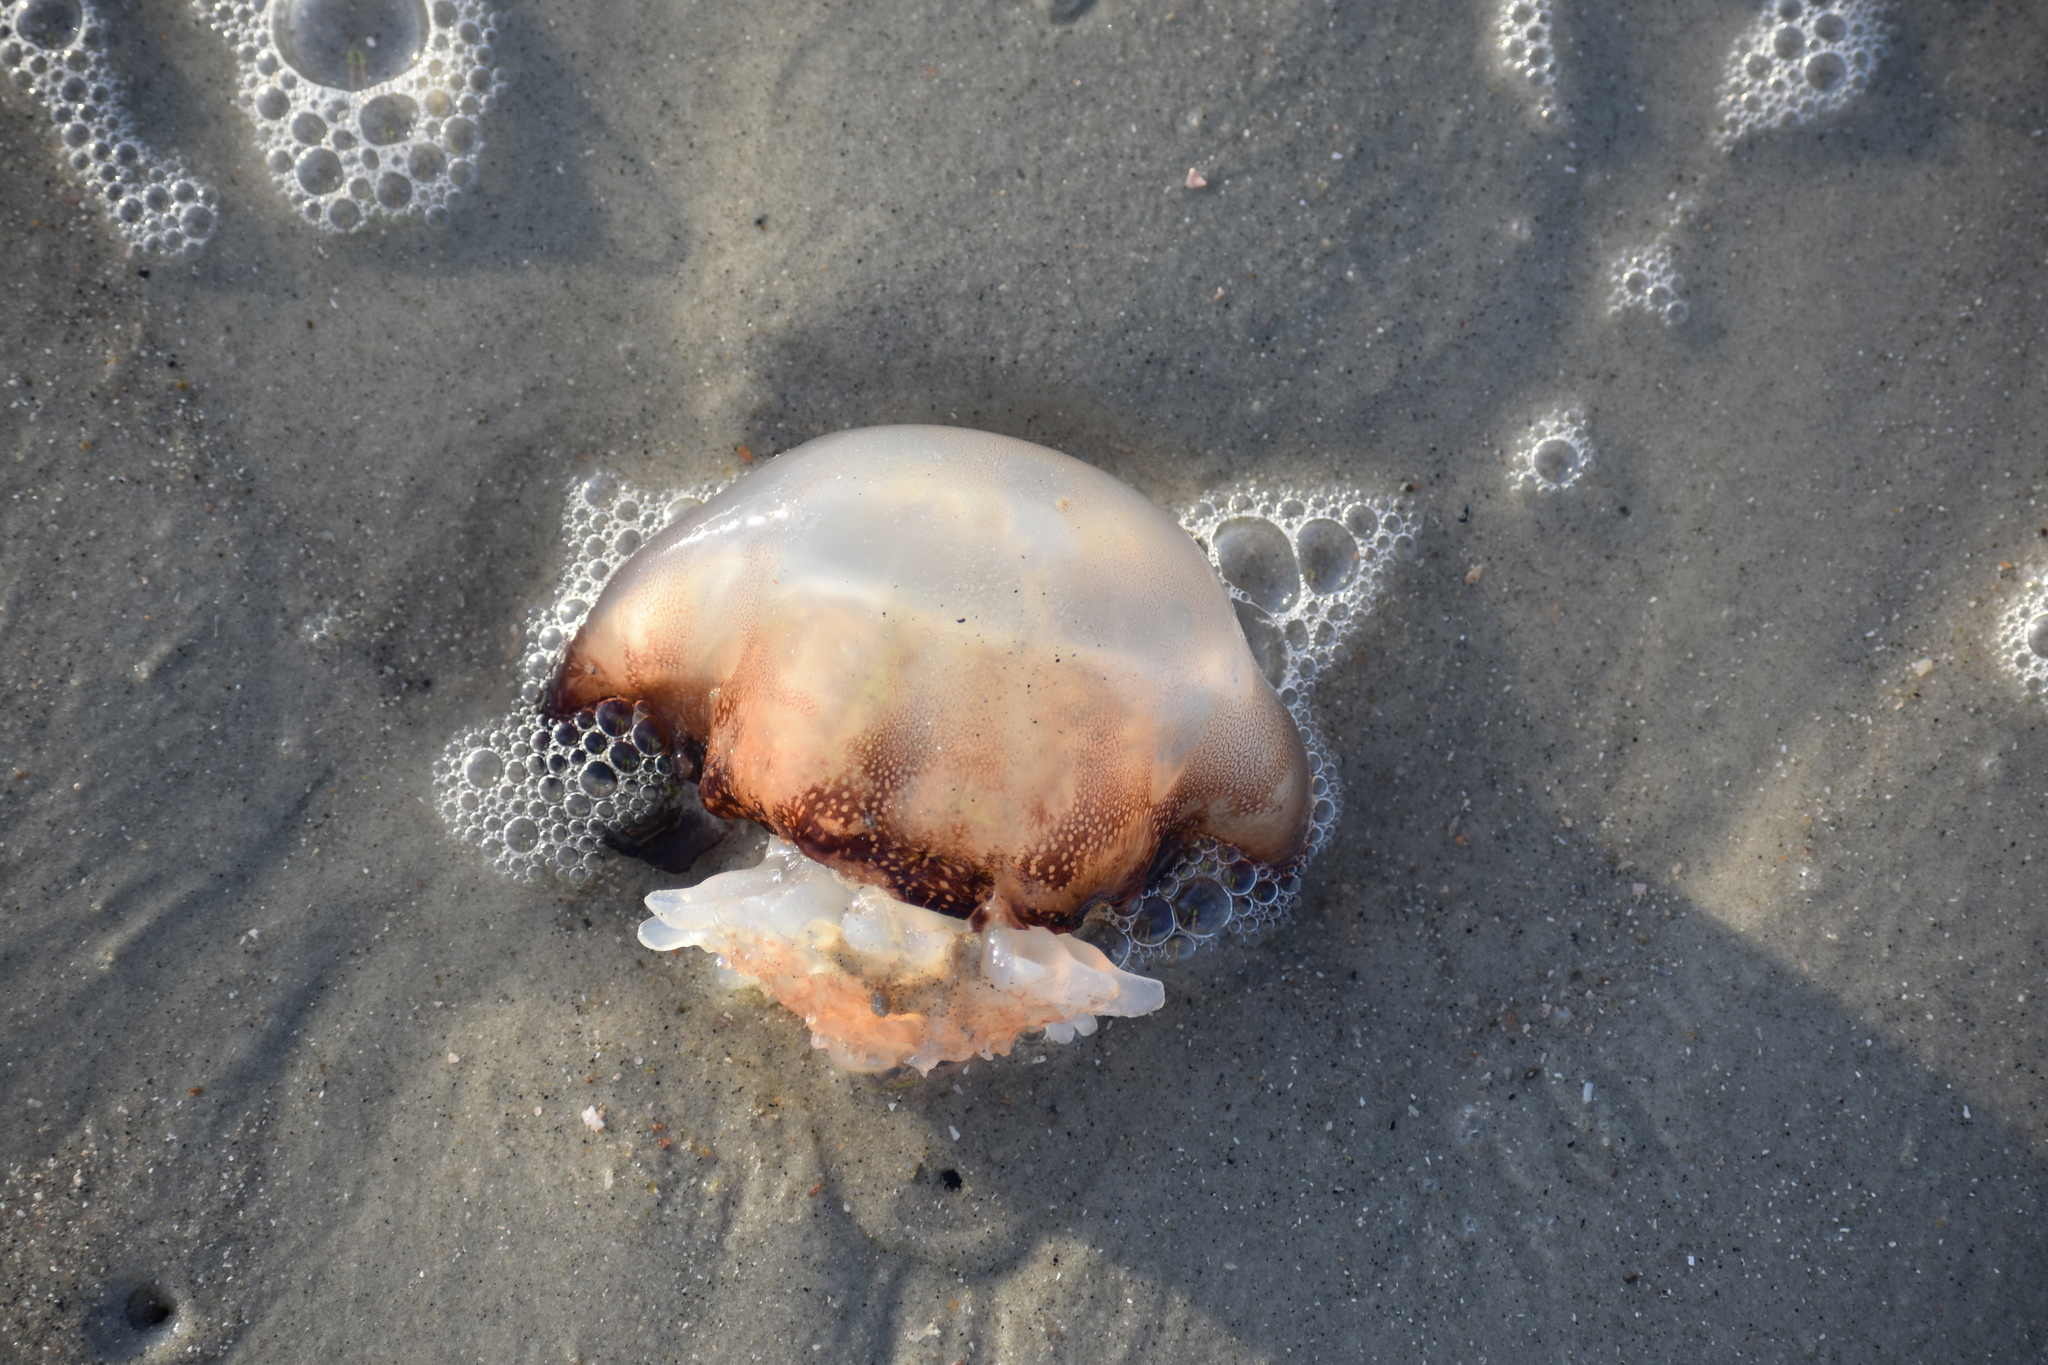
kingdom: Animalia
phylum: Cnidaria
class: Scyphozoa
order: Rhizostomeae
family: Stomolophidae
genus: Stomolophus
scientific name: Stomolophus meleagris
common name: Cabbagehead
